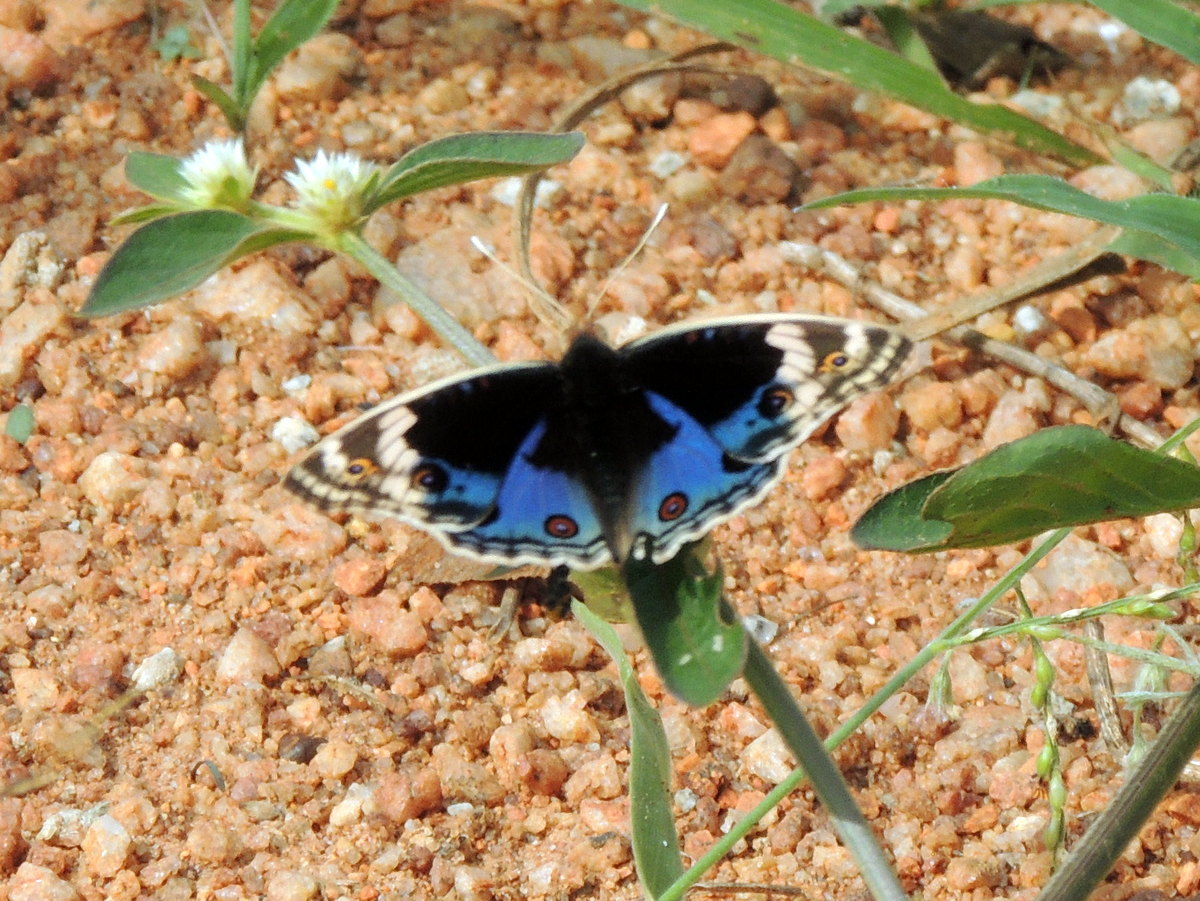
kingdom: Animalia
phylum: Arthropoda
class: Insecta
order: Lepidoptera
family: Nymphalidae
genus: Junonia
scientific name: Junonia orithya
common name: Blue pansy
